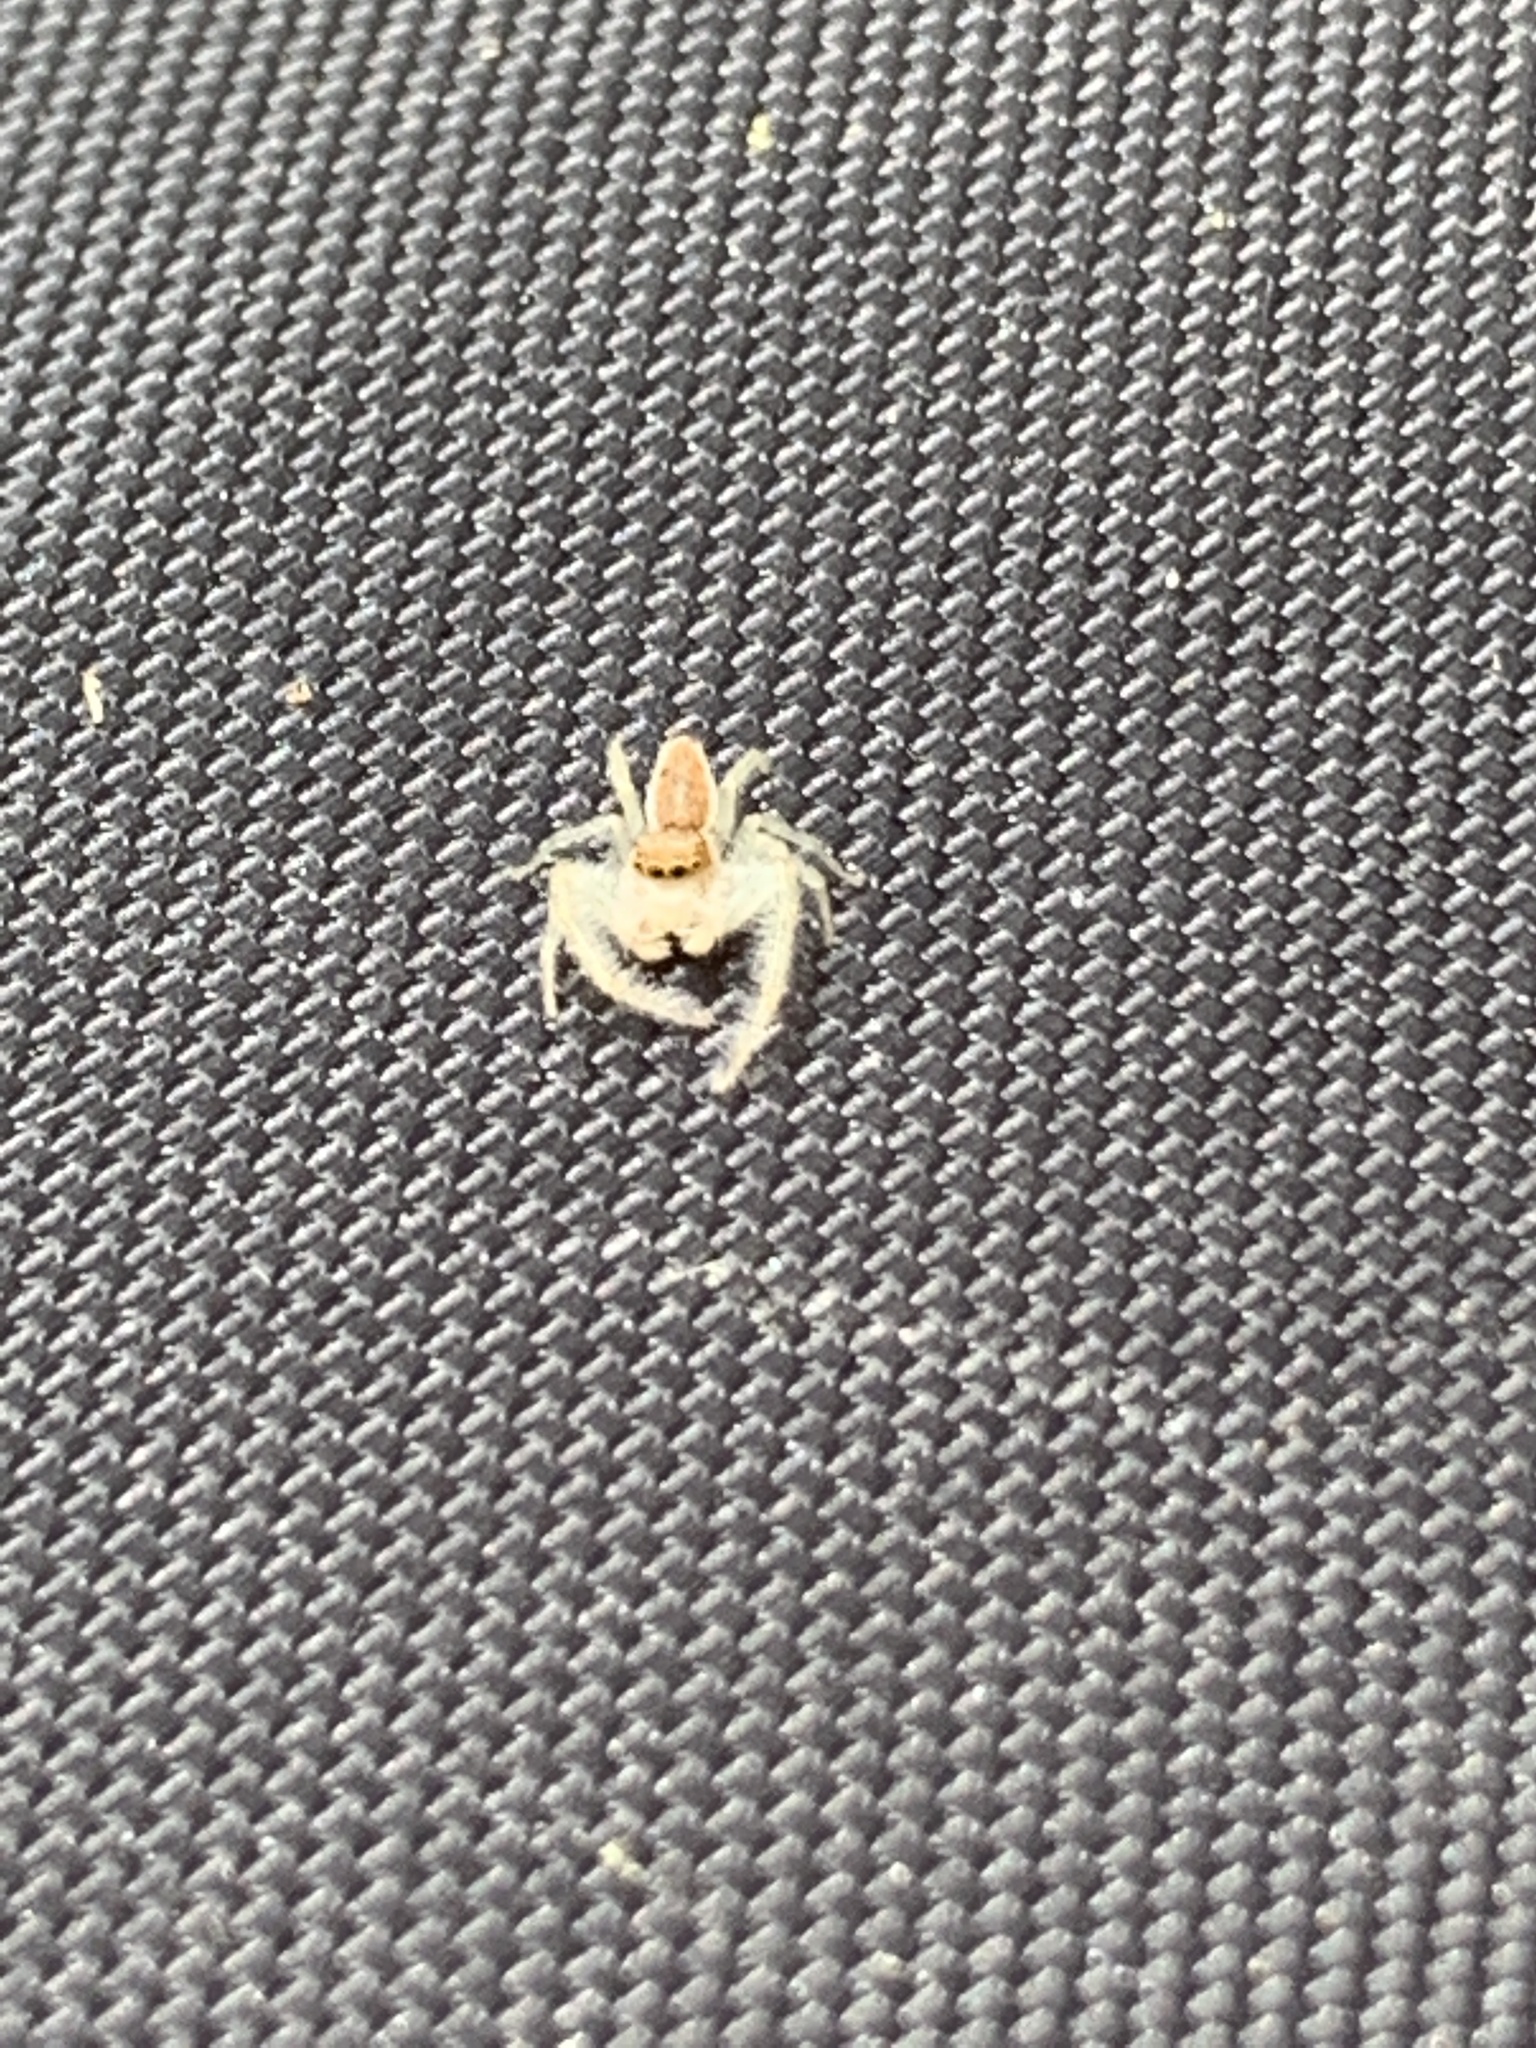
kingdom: Animalia
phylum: Arthropoda
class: Arachnida
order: Araneae
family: Salticidae
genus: Hentzia
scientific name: Hentzia mitrata
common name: White-jawed jumping spider
